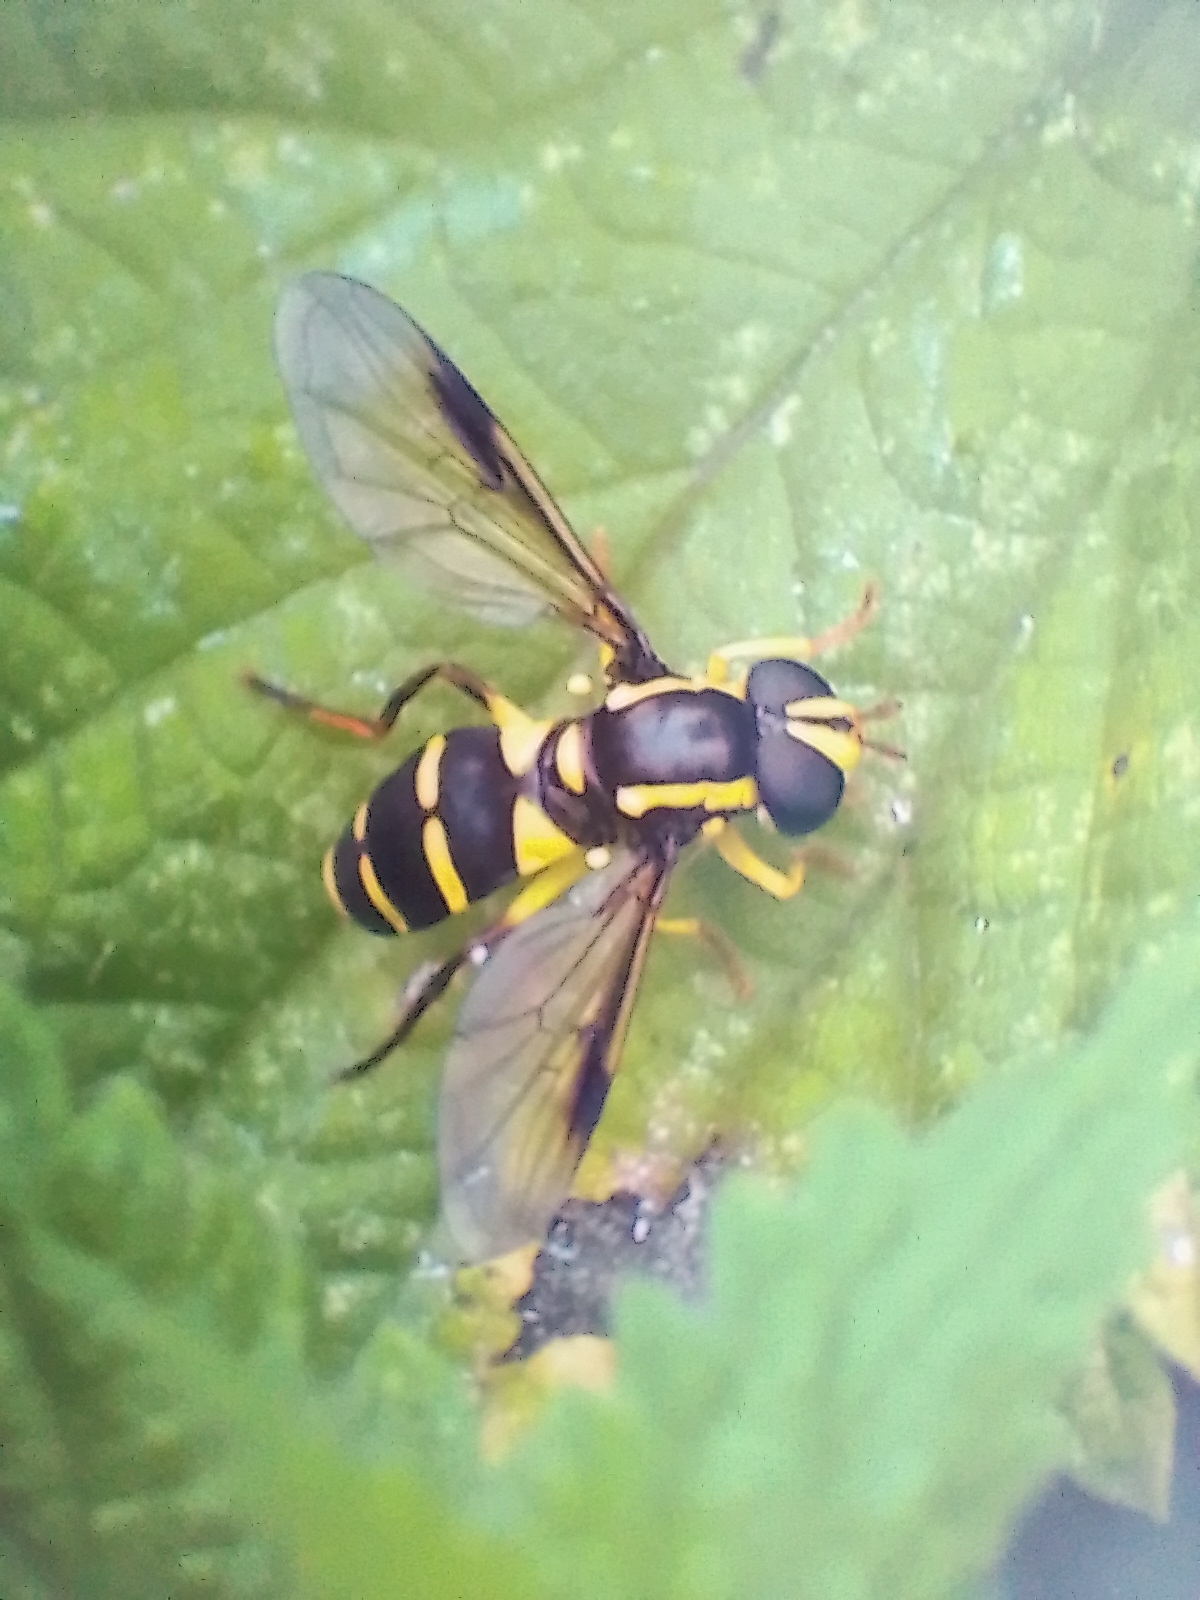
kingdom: Animalia
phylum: Arthropoda
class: Insecta
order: Diptera
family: Syrphidae
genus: Philhelius
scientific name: Philhelius pedissequum
